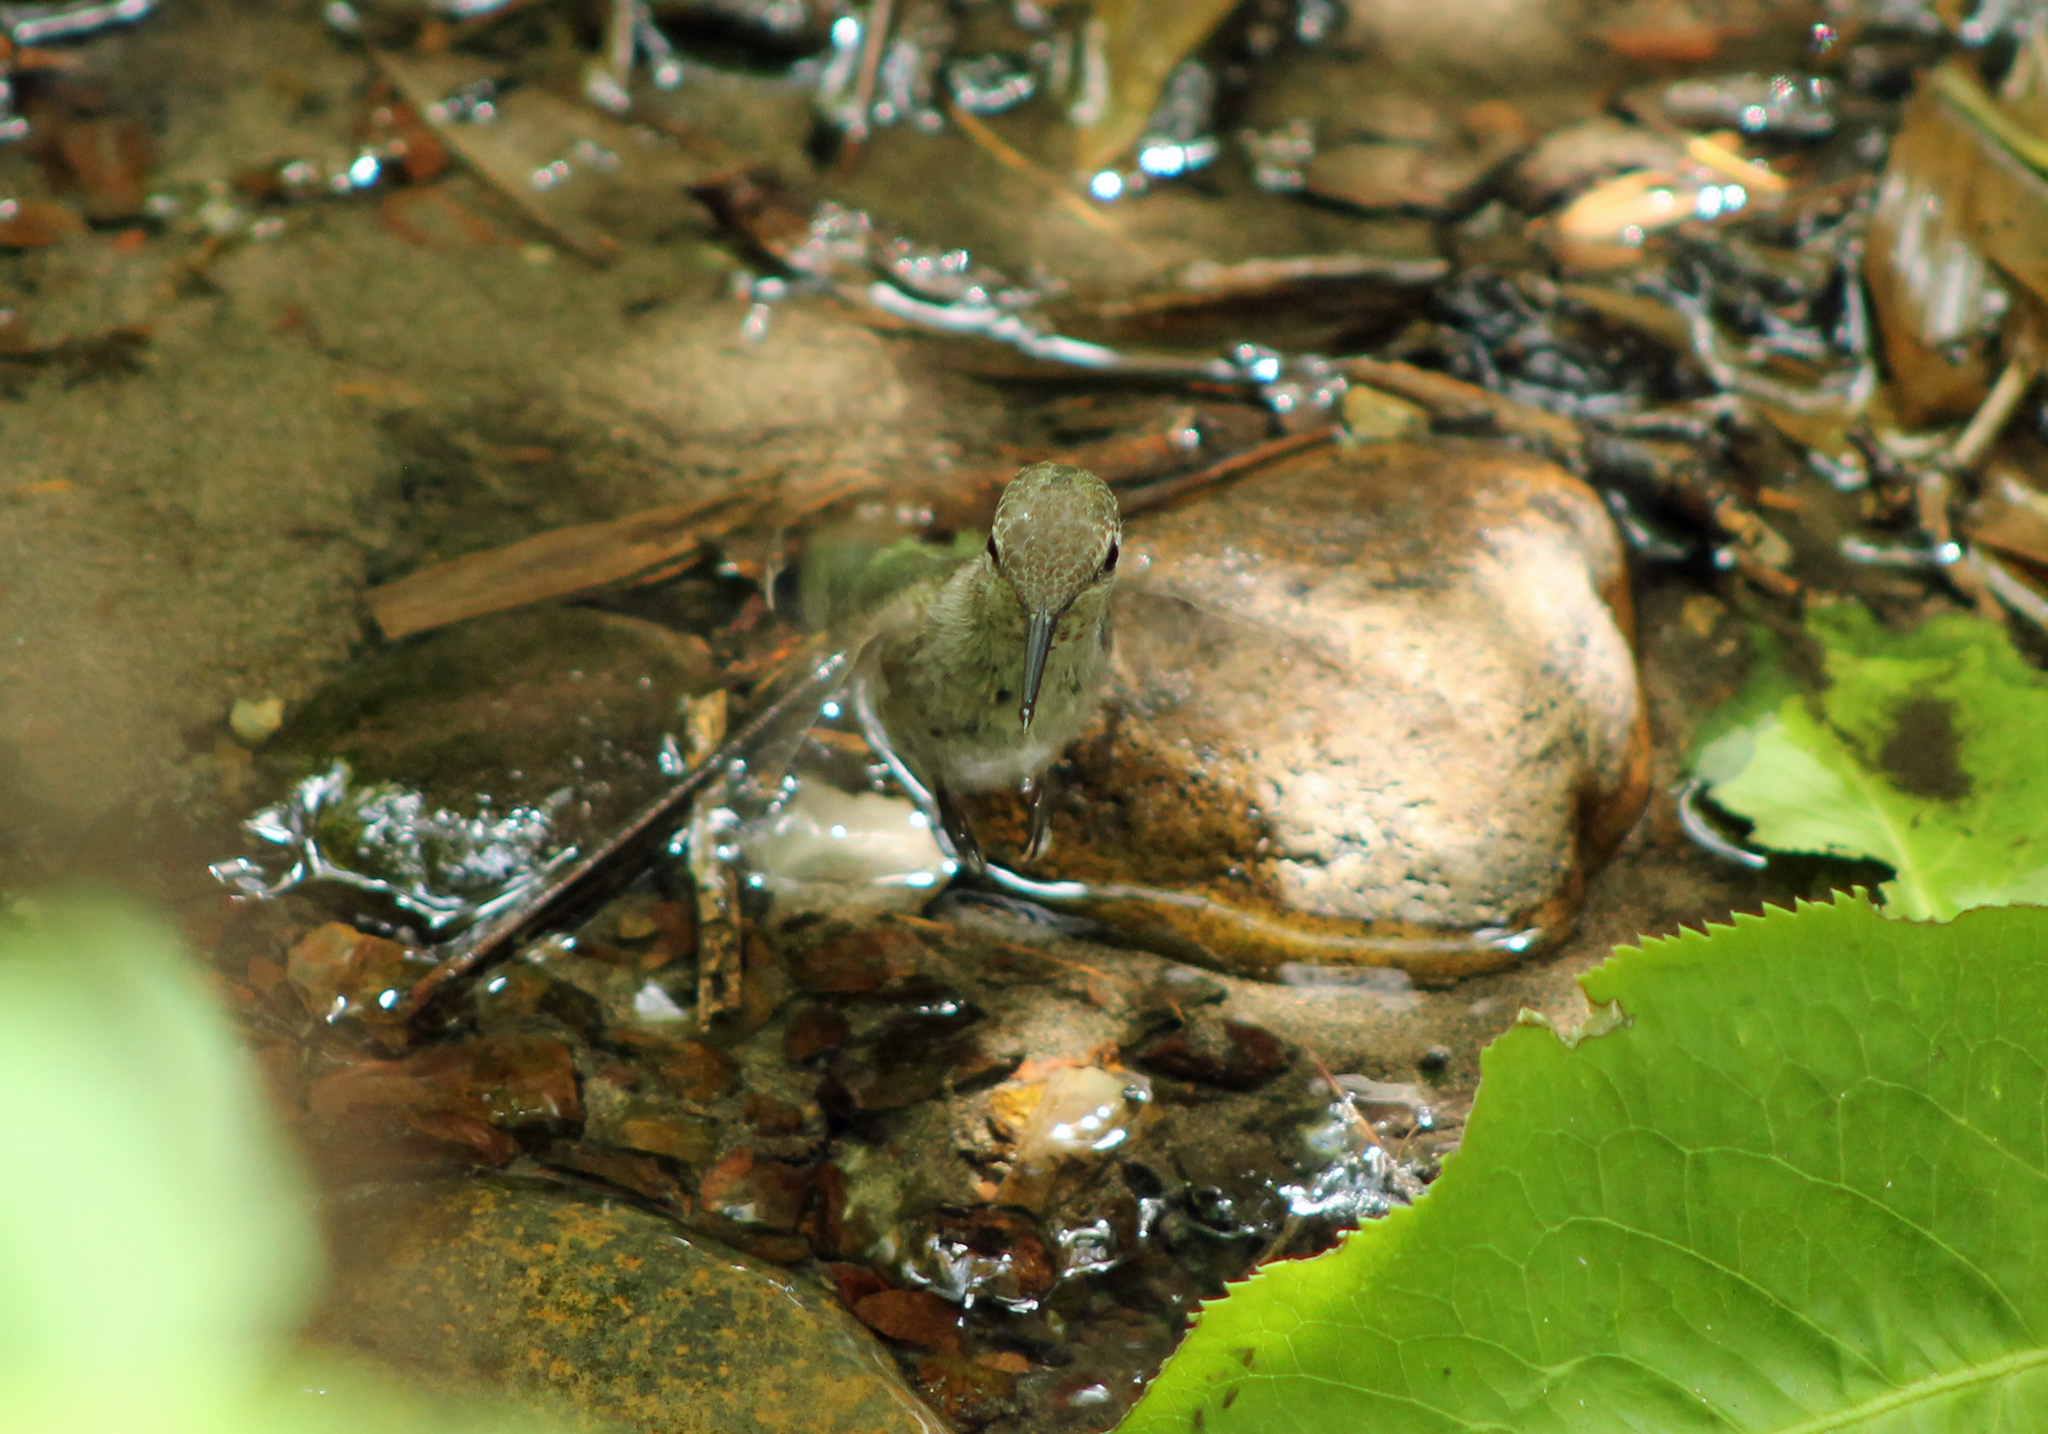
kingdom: Animalia
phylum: Chordata
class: Aves
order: Apodiformes
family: Trochilidae
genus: Calypte
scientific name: Calypte anna
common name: Anna's hummingbird
